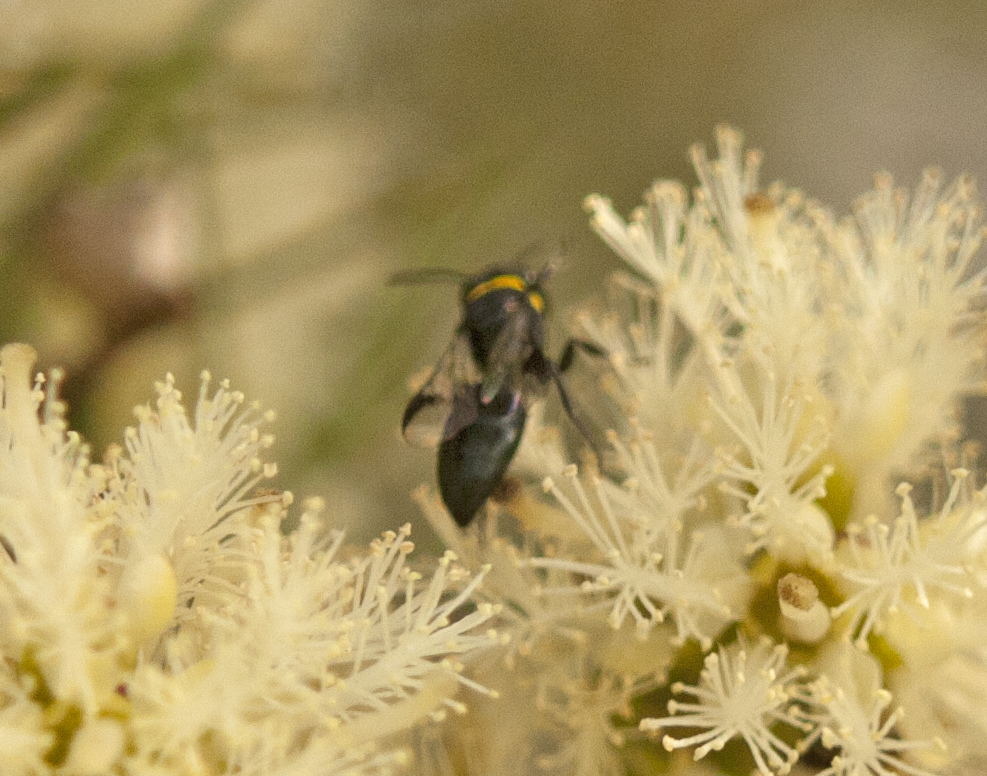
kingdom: Animalia
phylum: Arthropoda
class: Insecta
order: Hymenoptera
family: Colletidae
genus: Hylaeus
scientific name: Hylaeus primulipictus
